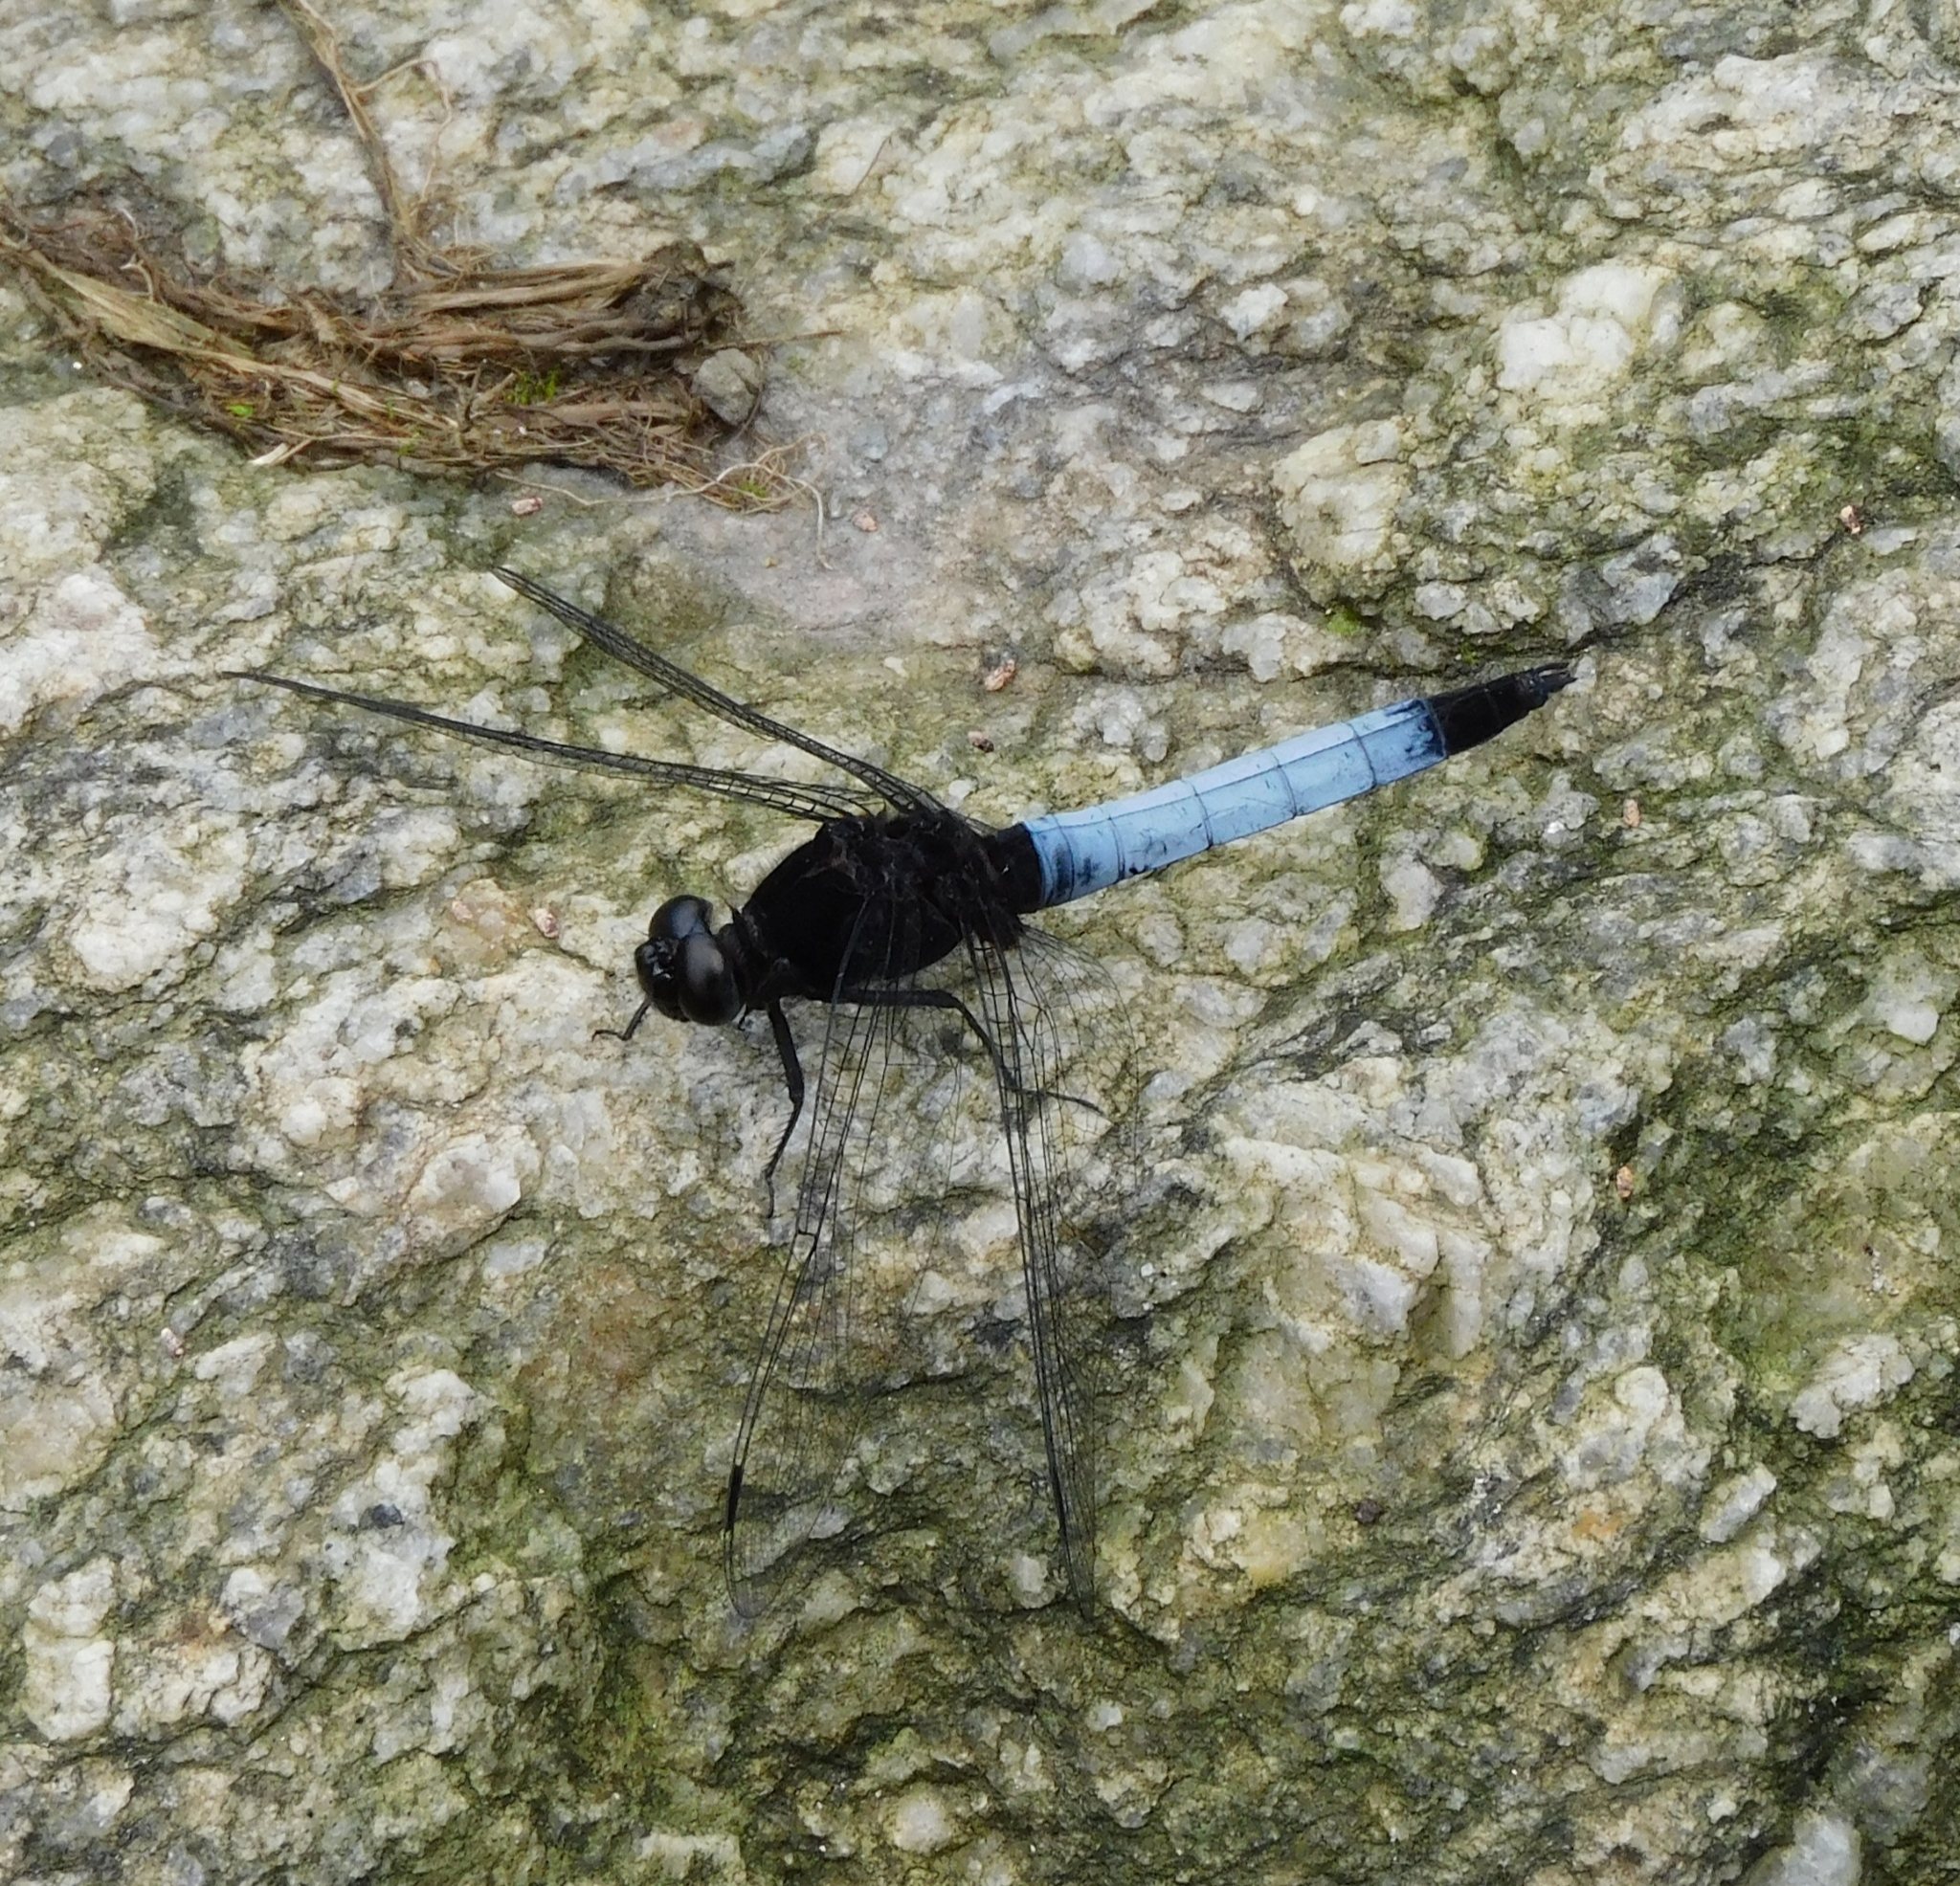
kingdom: Animalia
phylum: Arthropoda
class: Insecta
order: Odonata
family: Libellulidae
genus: Orthetrum
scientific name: Orthetrum triangulare
